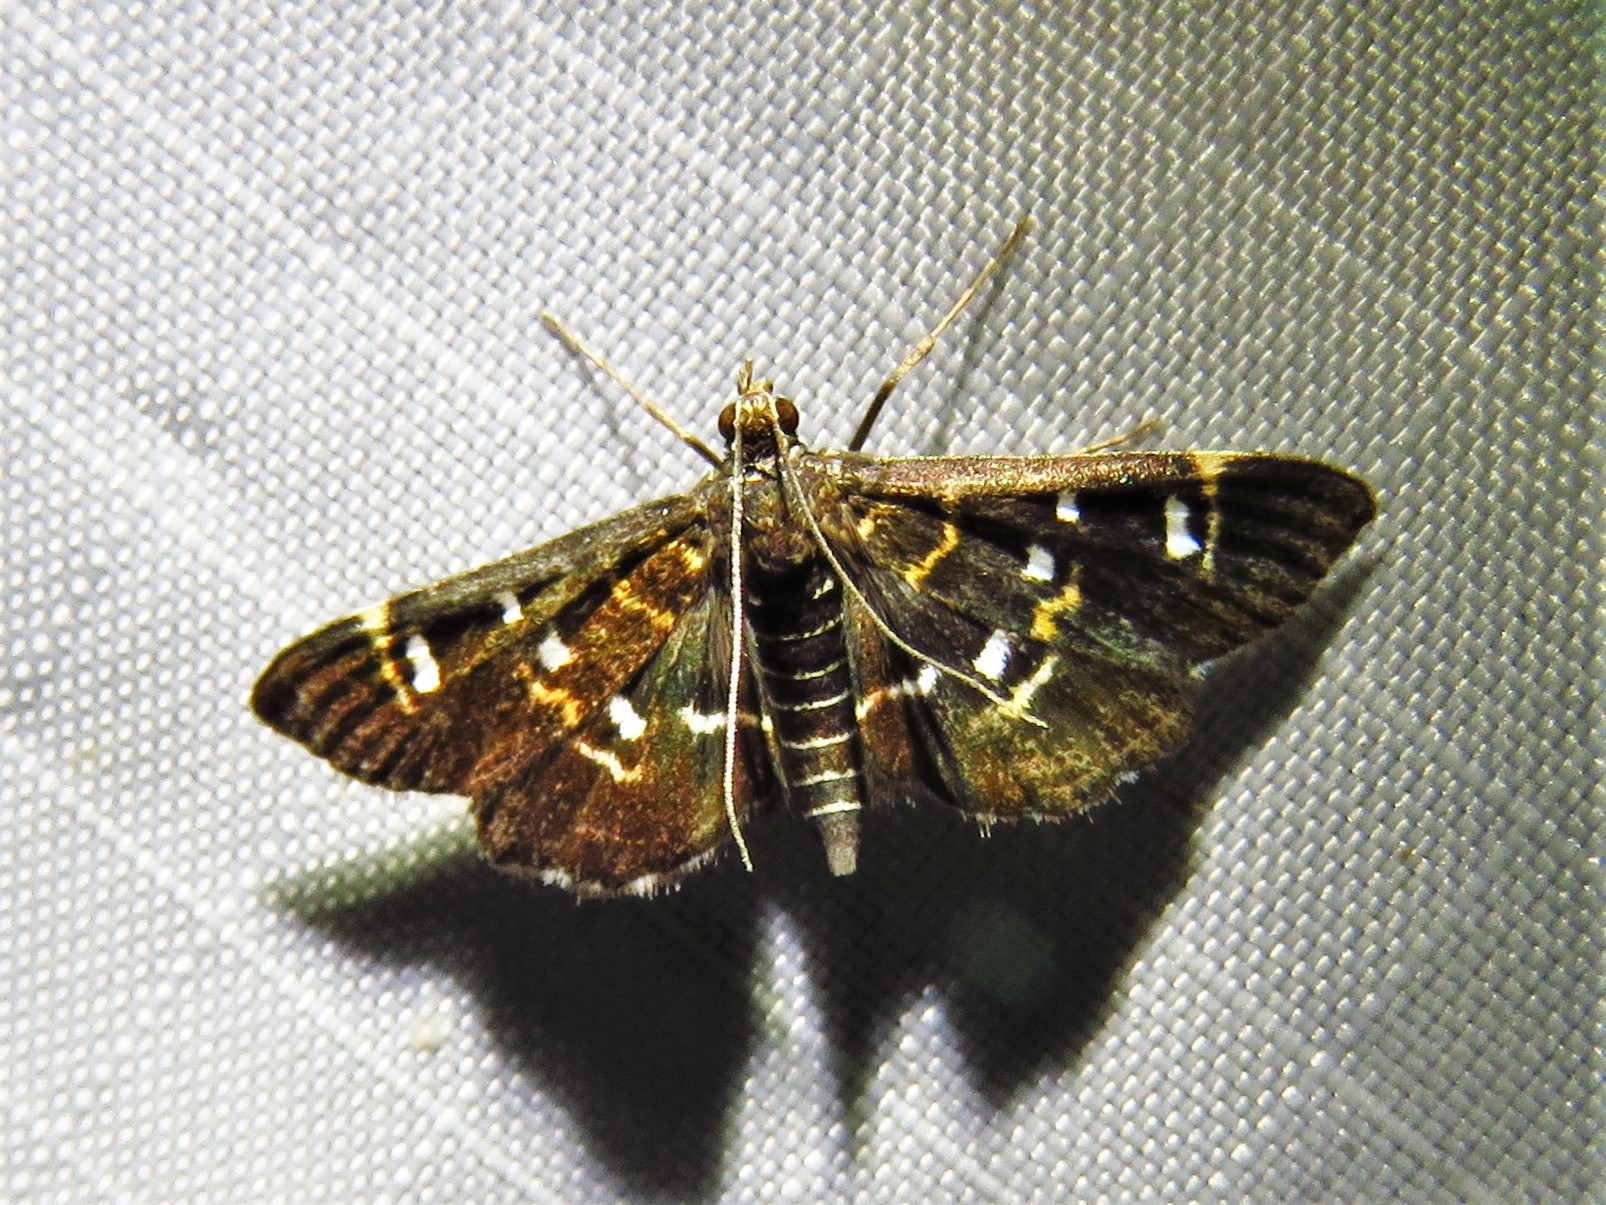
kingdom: Animalia
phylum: Arthropoda
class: Insecta
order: Lepidoptera
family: Crambidae
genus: Diathrausta
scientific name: Diathrausta harlequinalis
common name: Harlequin webworm moth
